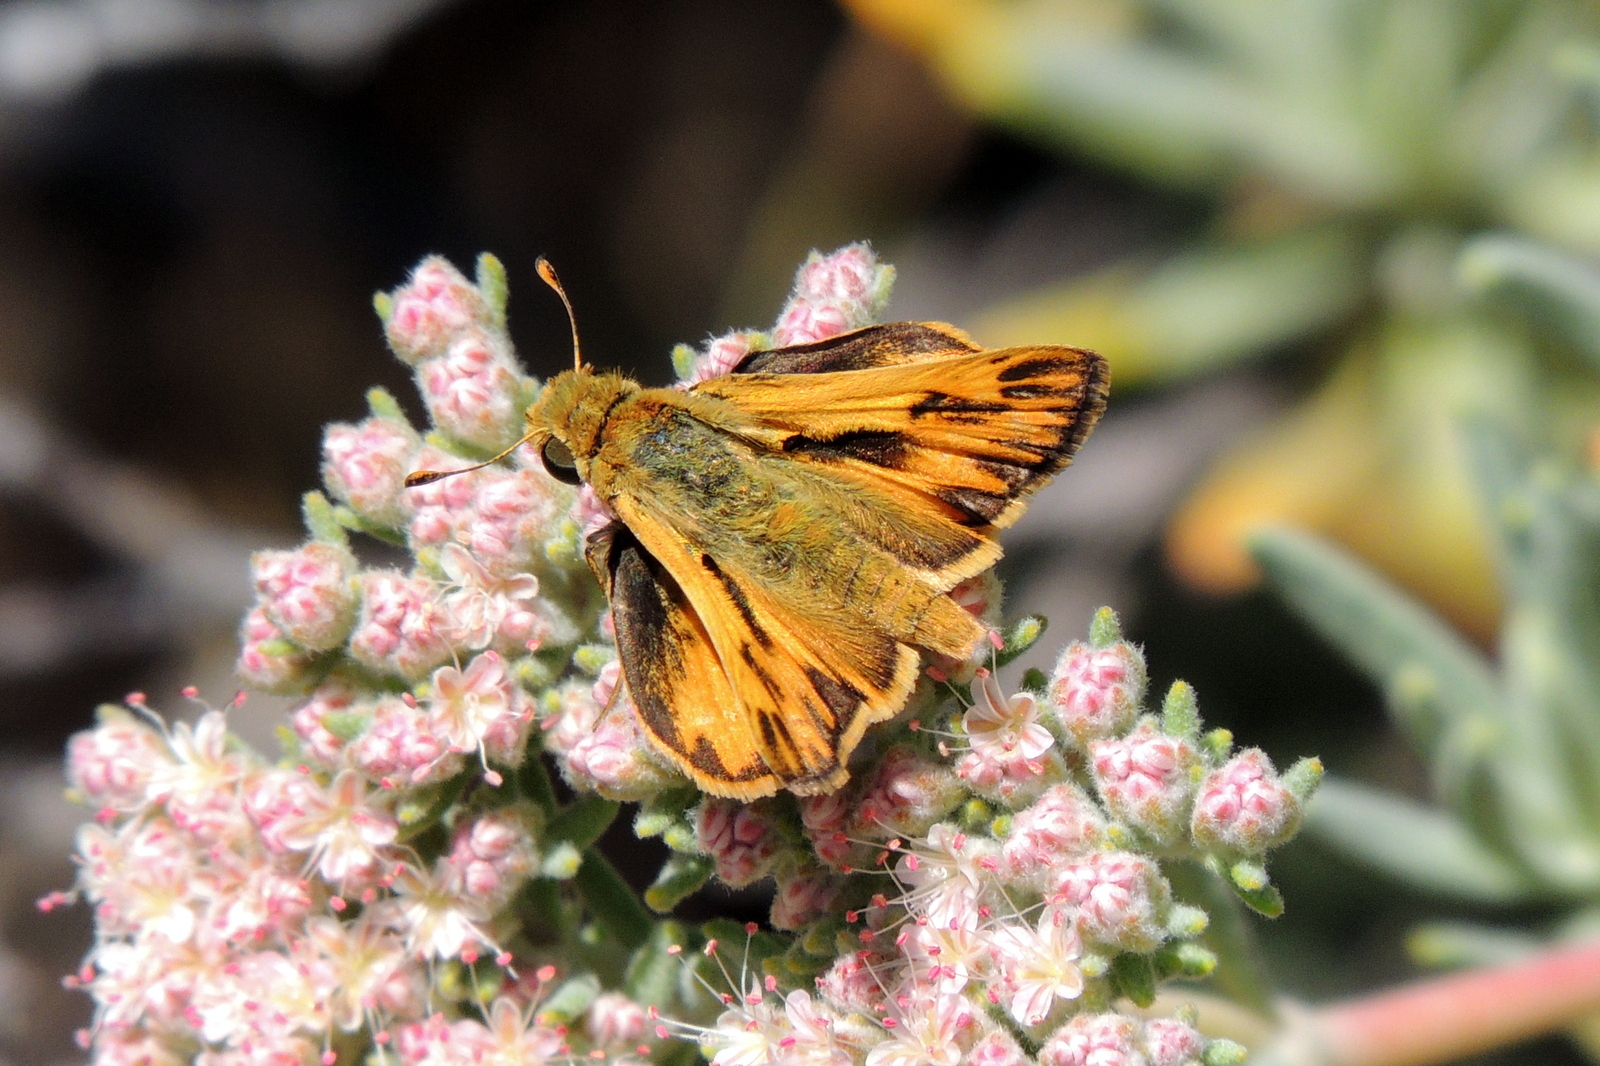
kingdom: Animalia
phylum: Arthropoda
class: Insecta
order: Lepidoptera
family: Hesperiidae
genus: Hylephila
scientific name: Hylephila phyleus
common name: Fiery skipper
